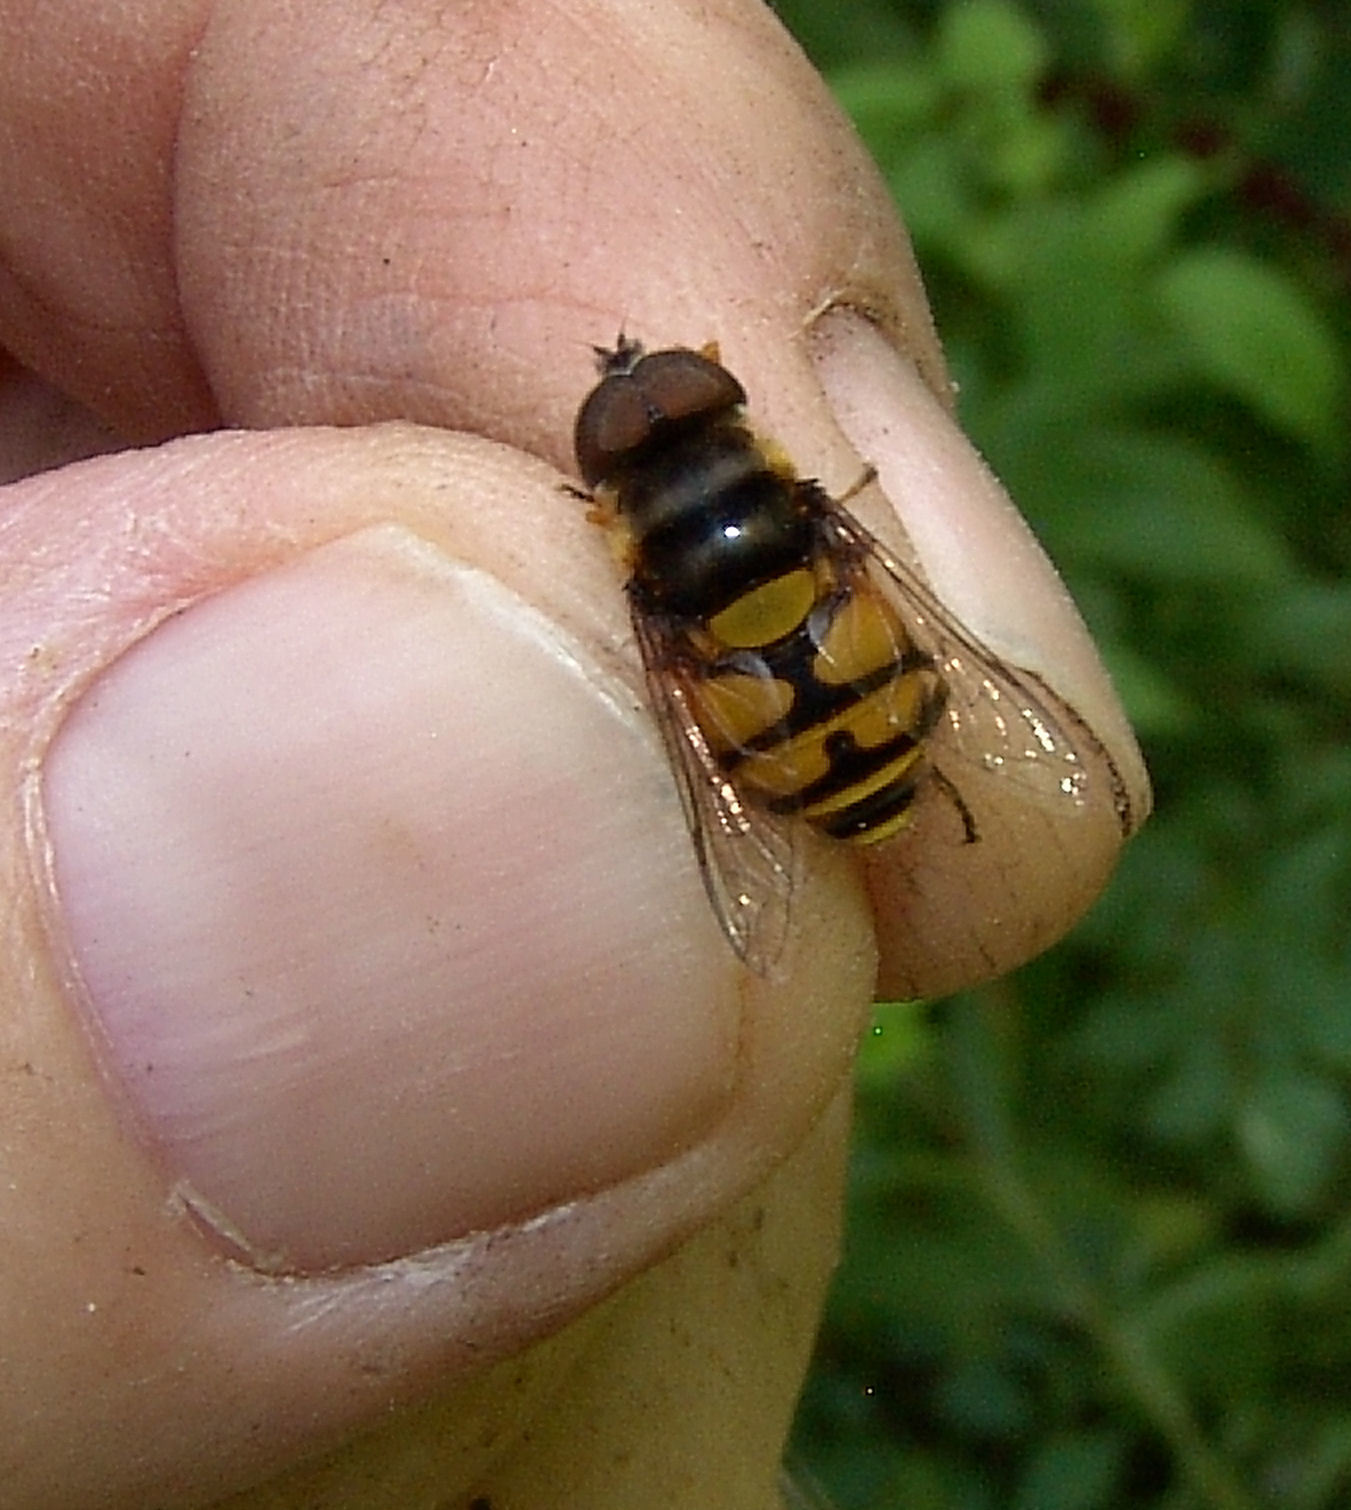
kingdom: Animalia
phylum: Arthropoda
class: Insecta
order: Diptera
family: Syrphidae
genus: Eristalis
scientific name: Eristalis transversa
